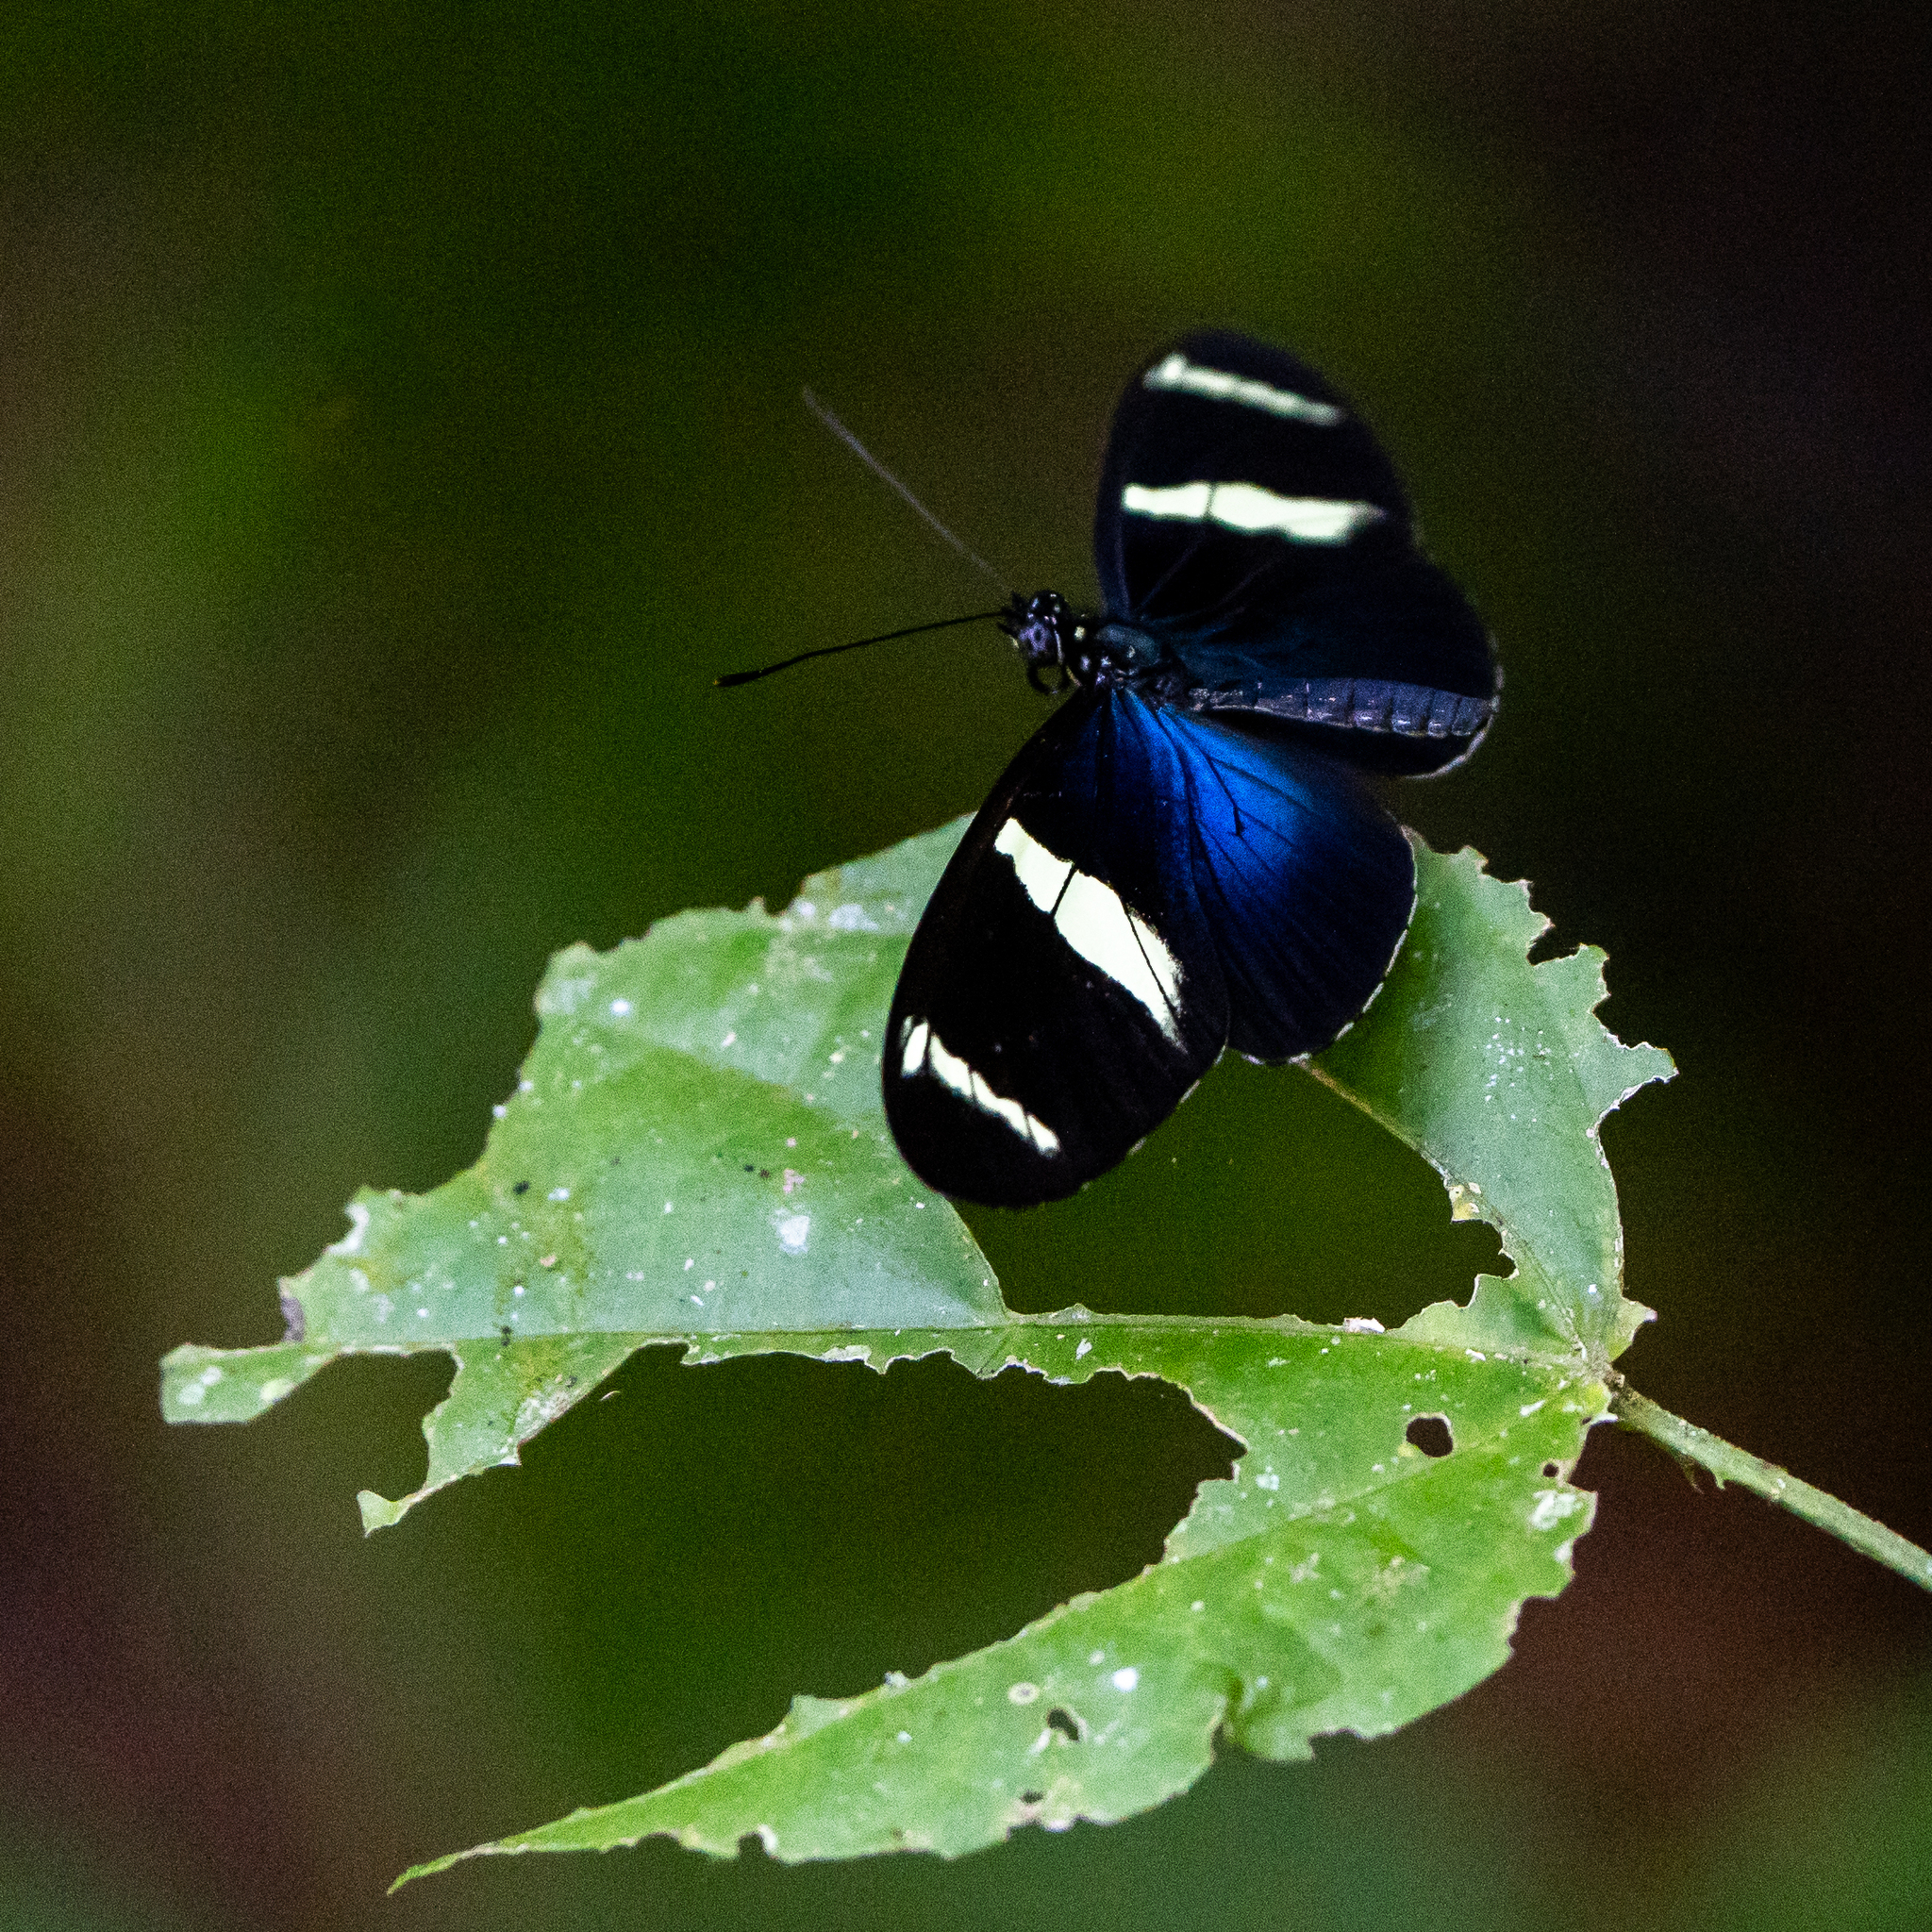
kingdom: Animalia
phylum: Arthropoda
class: Insecta
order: Lepidoptera
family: Nymphalidae
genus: Heliconius
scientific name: Heliconius sara
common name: Sara longwing
